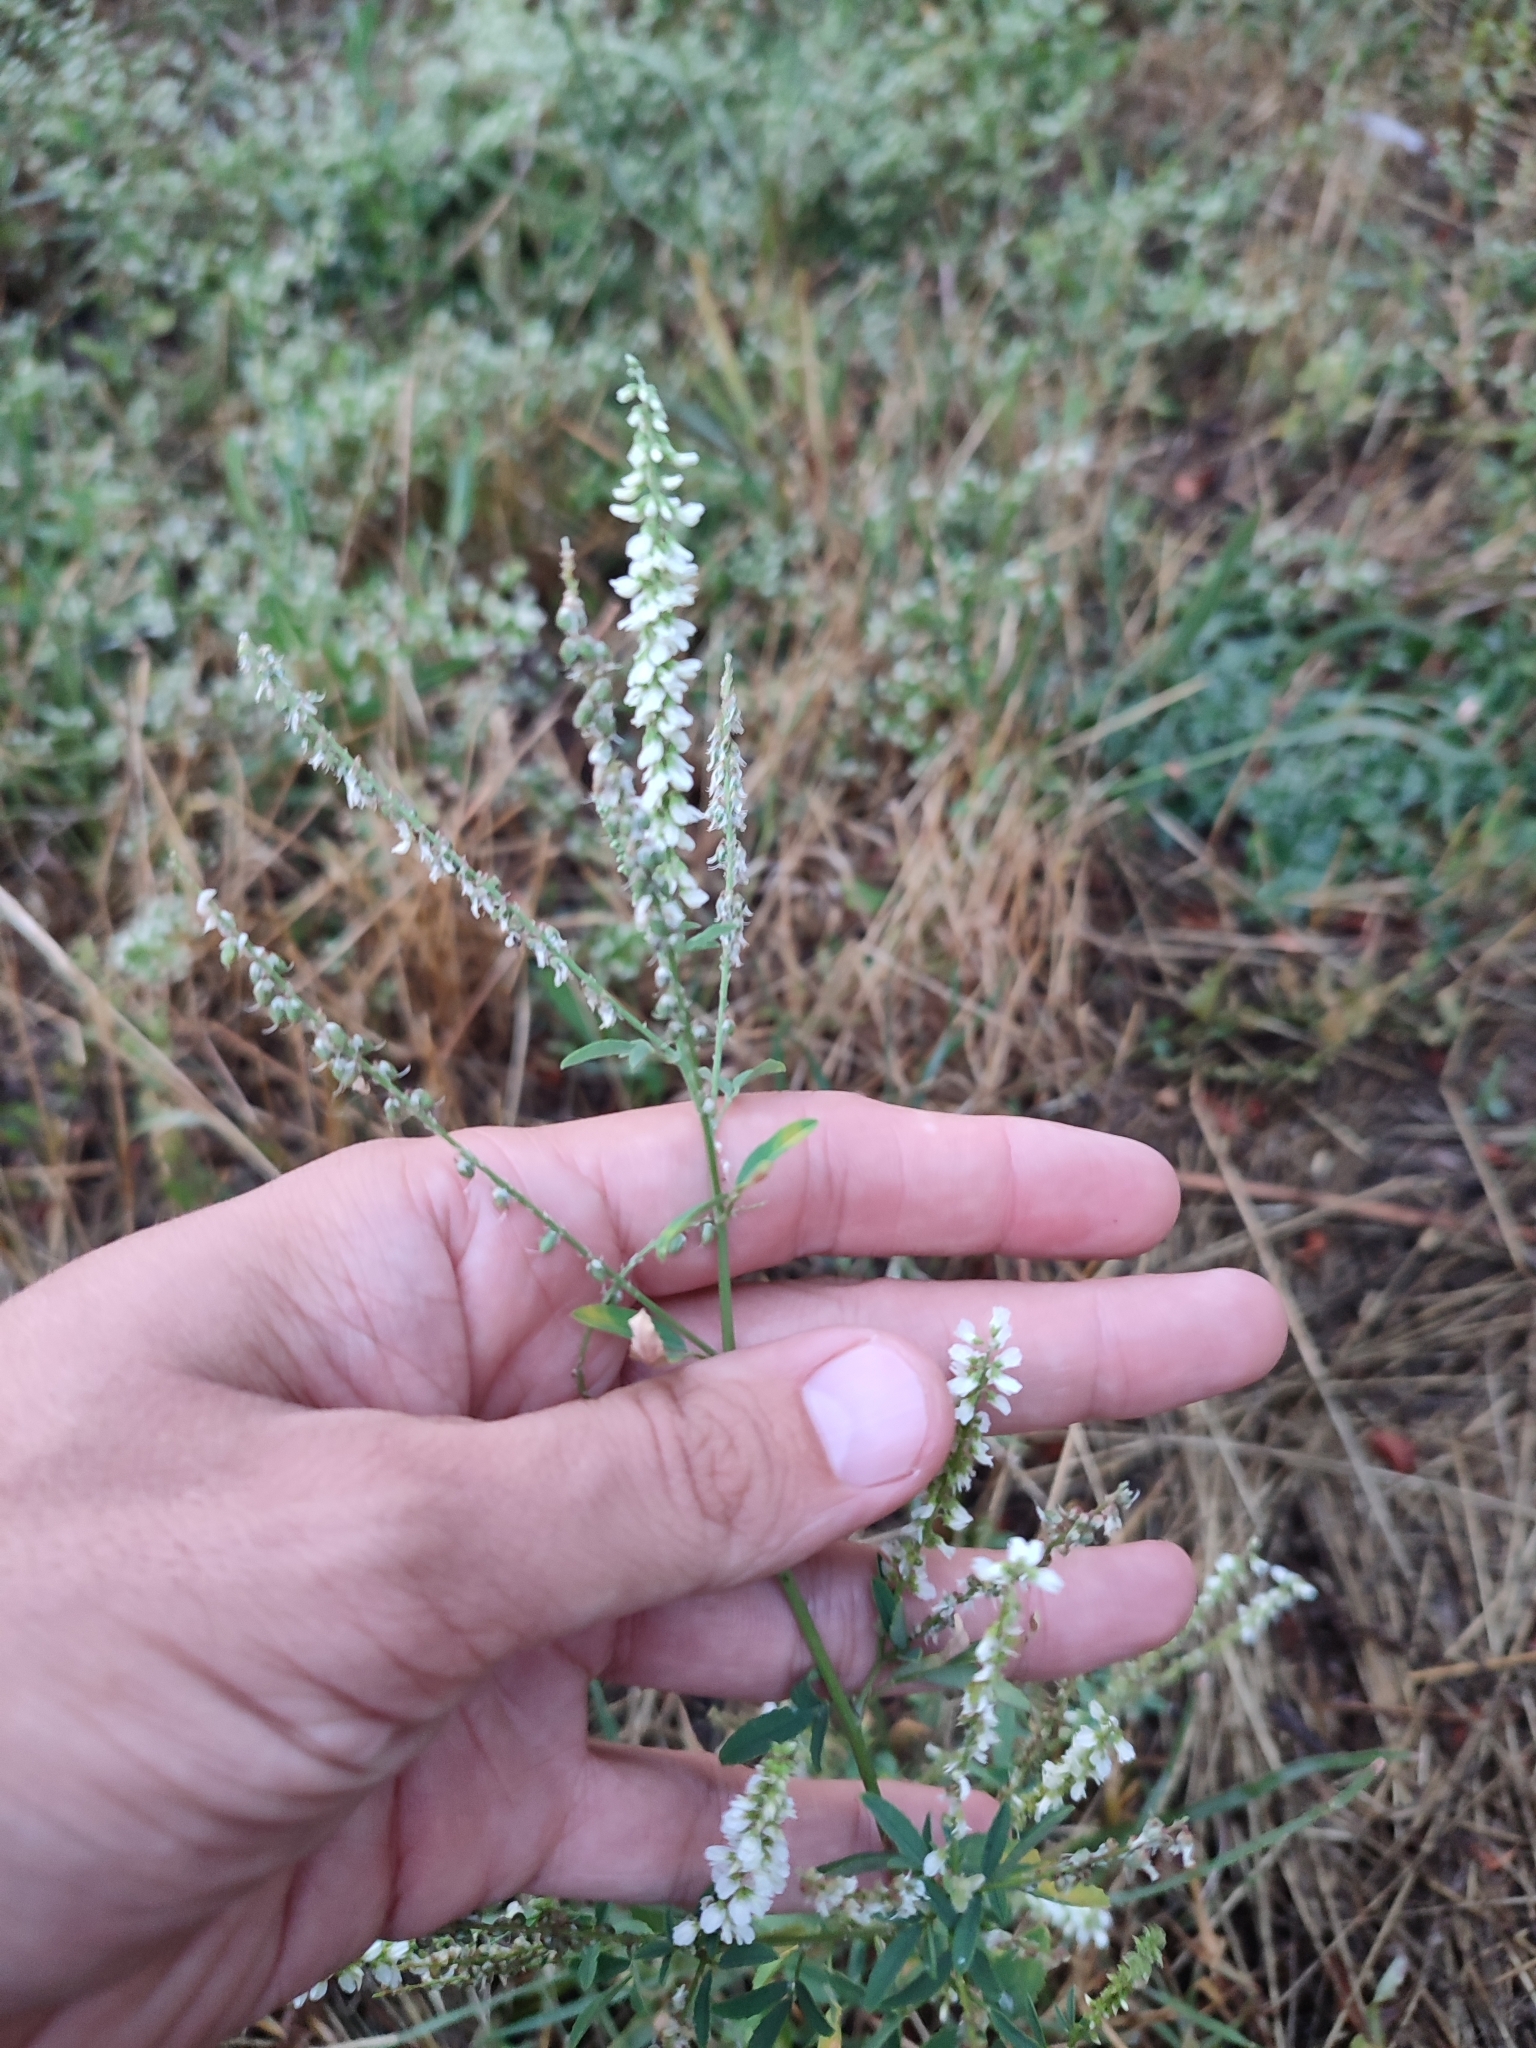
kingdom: Plantae
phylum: Tracheophyta
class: Magnoliopsida
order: Fabales
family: Fabaceae
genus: Melilotus
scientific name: Melilotus albus
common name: White melilot
